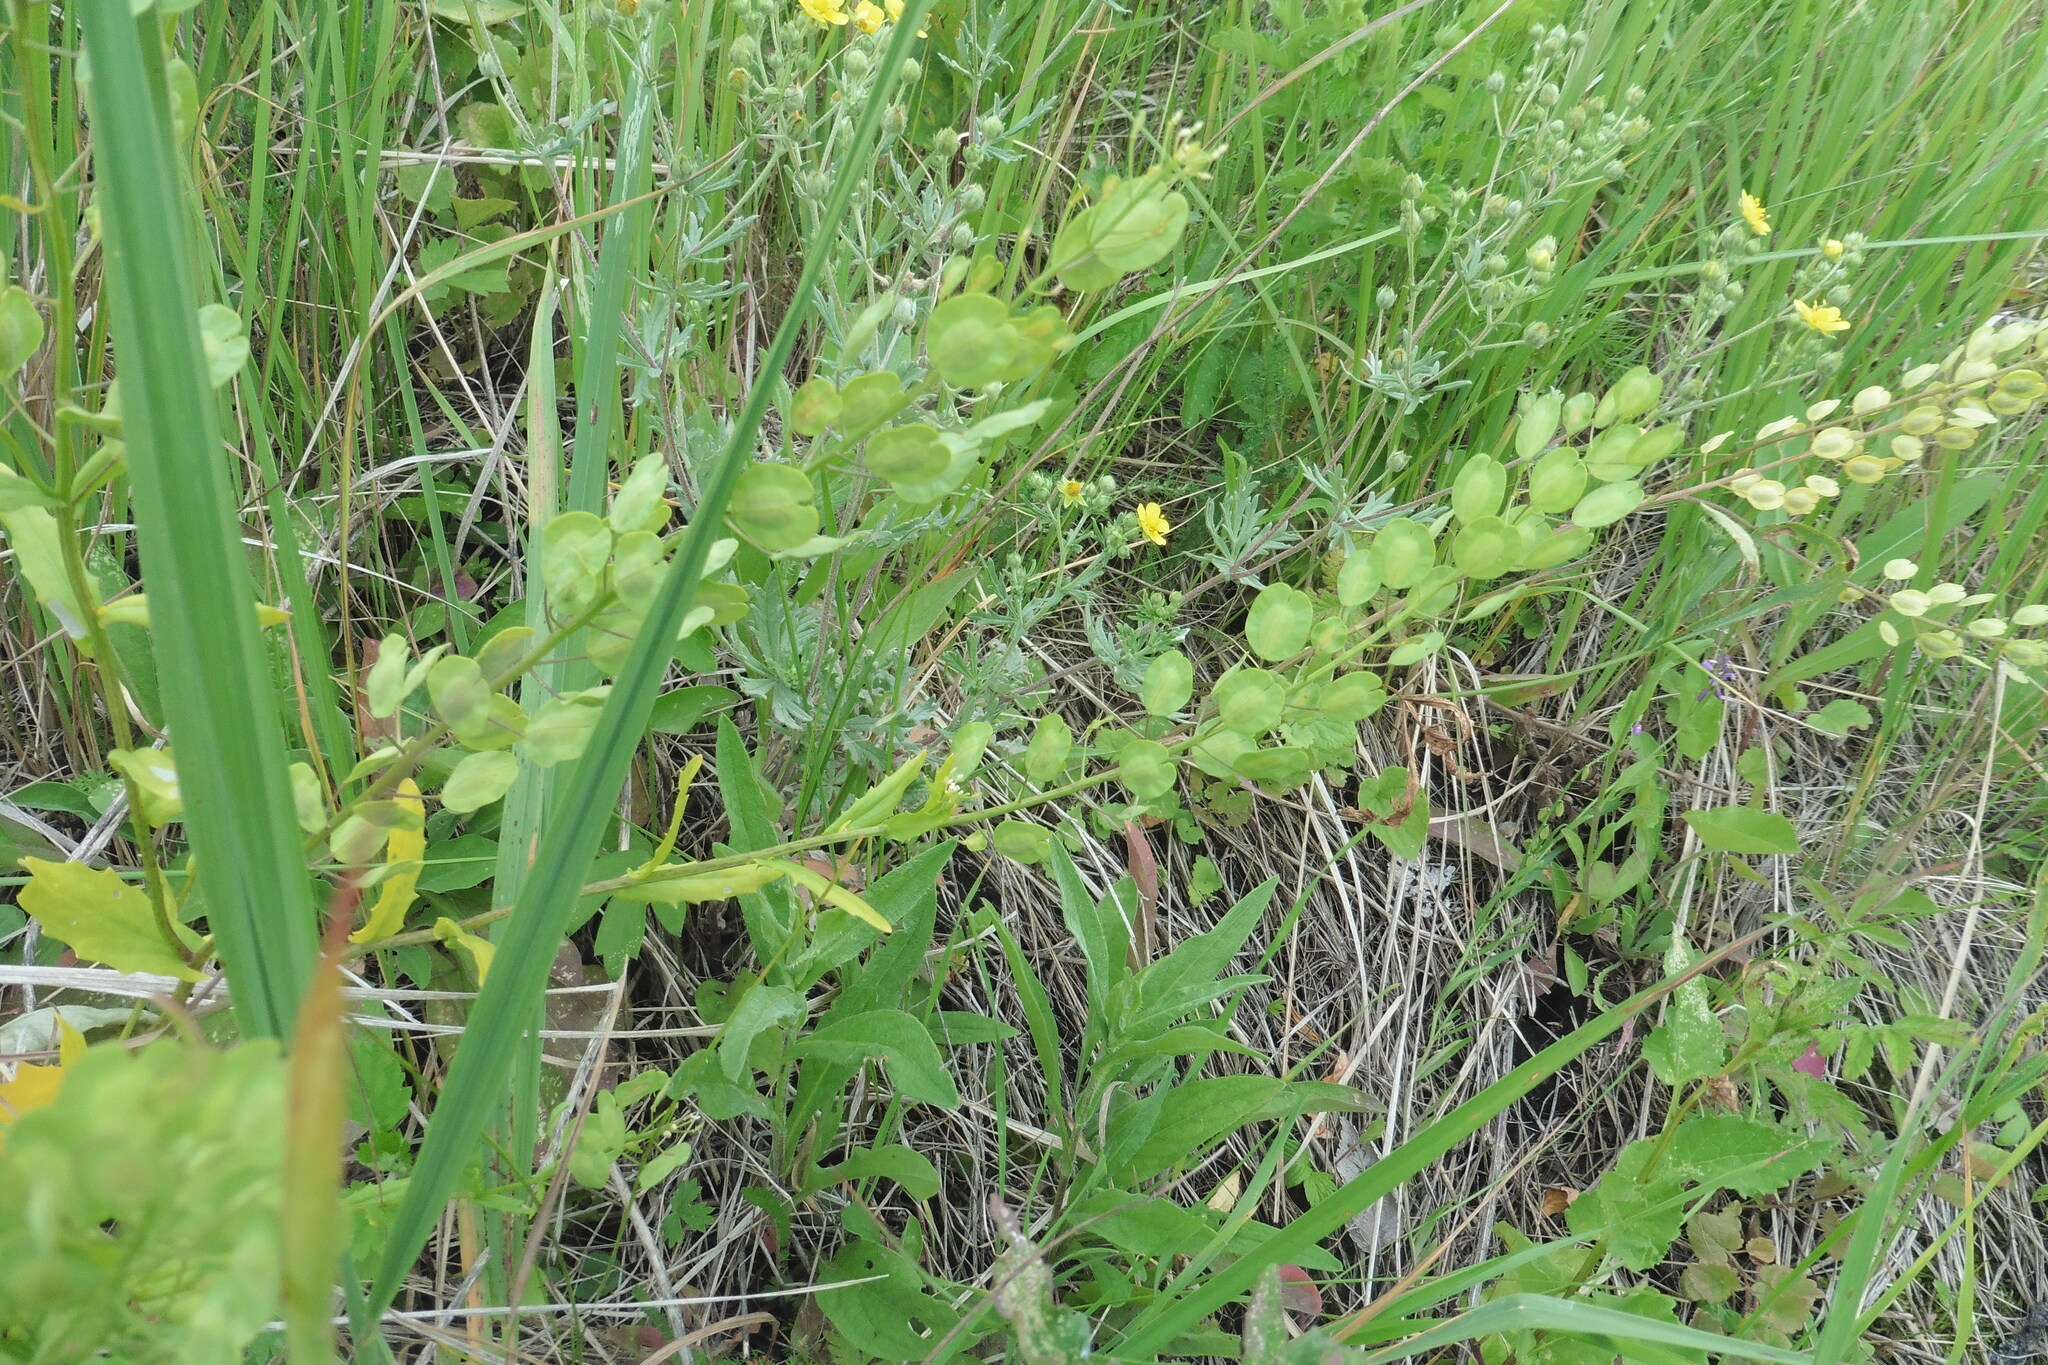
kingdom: Plantae
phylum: Tracheophyta
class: Magnoliopsida
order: Brassicales
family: Brassicaceae
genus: Thlaspi
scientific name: Thlaspi arvense
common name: Field pennycress
